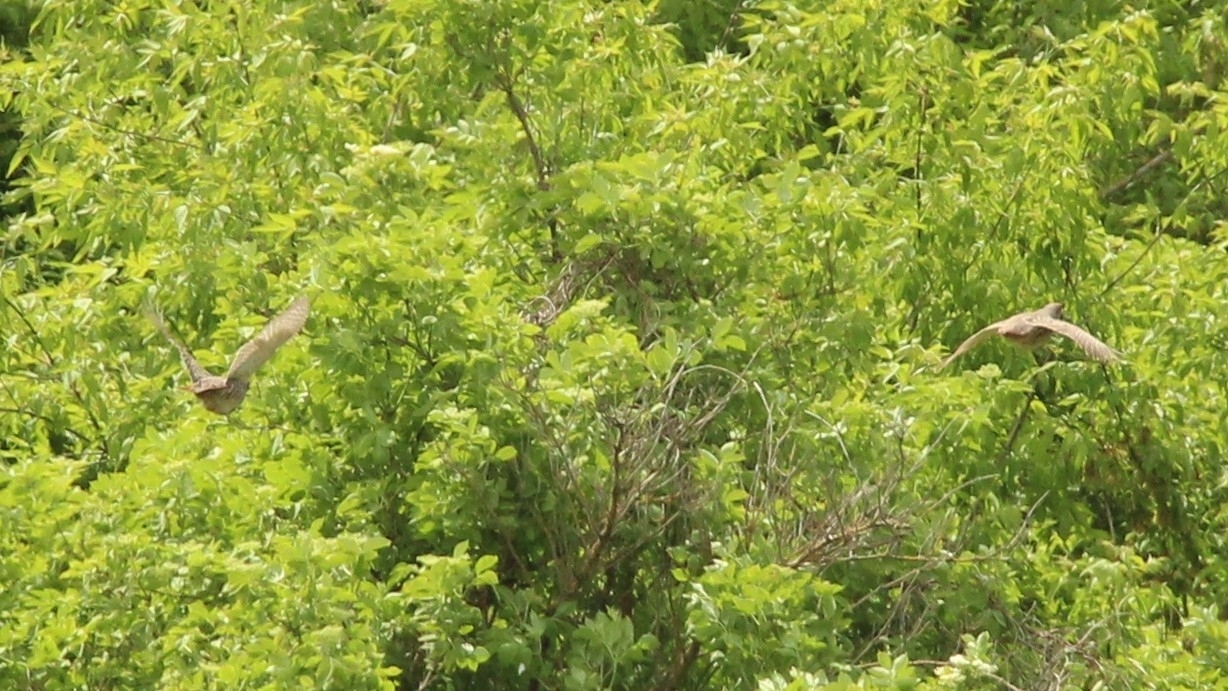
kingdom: Animalia
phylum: Chordata
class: Aves
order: Galliformes
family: Phasianidae
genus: Perdix
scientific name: Perdix perdix
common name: Grey partridge
